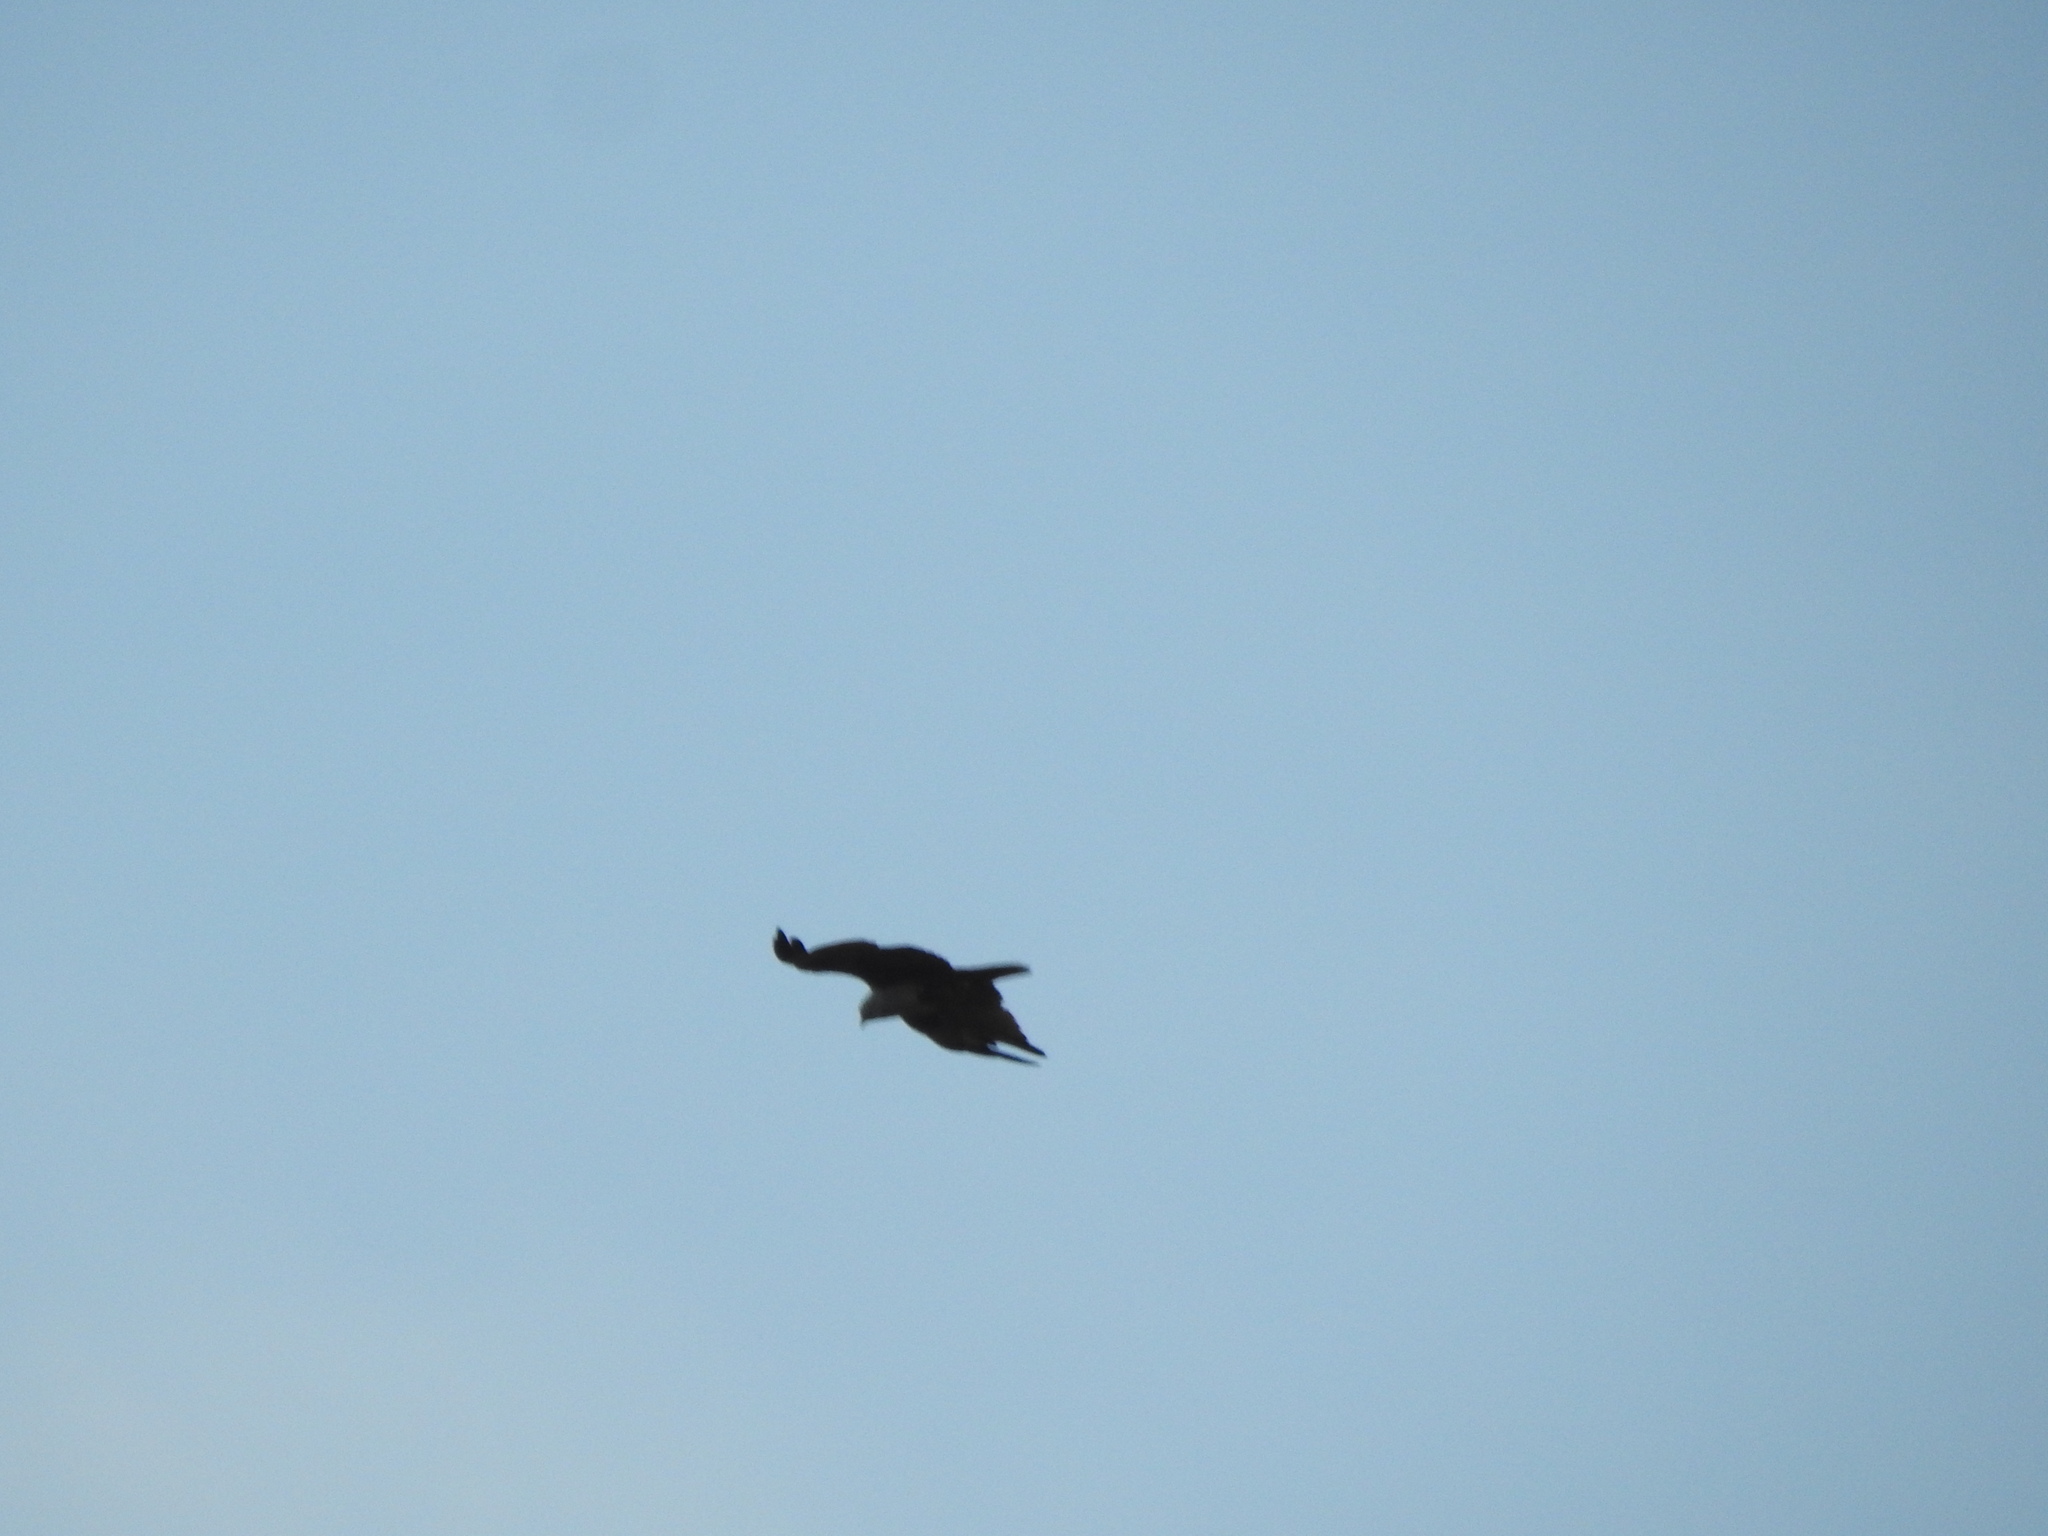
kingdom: Animalia
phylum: Chordata
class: Aves
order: Accipitriformes
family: Accipitridae
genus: Haliastur
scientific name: Haliastur indus
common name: Brahminy kite
